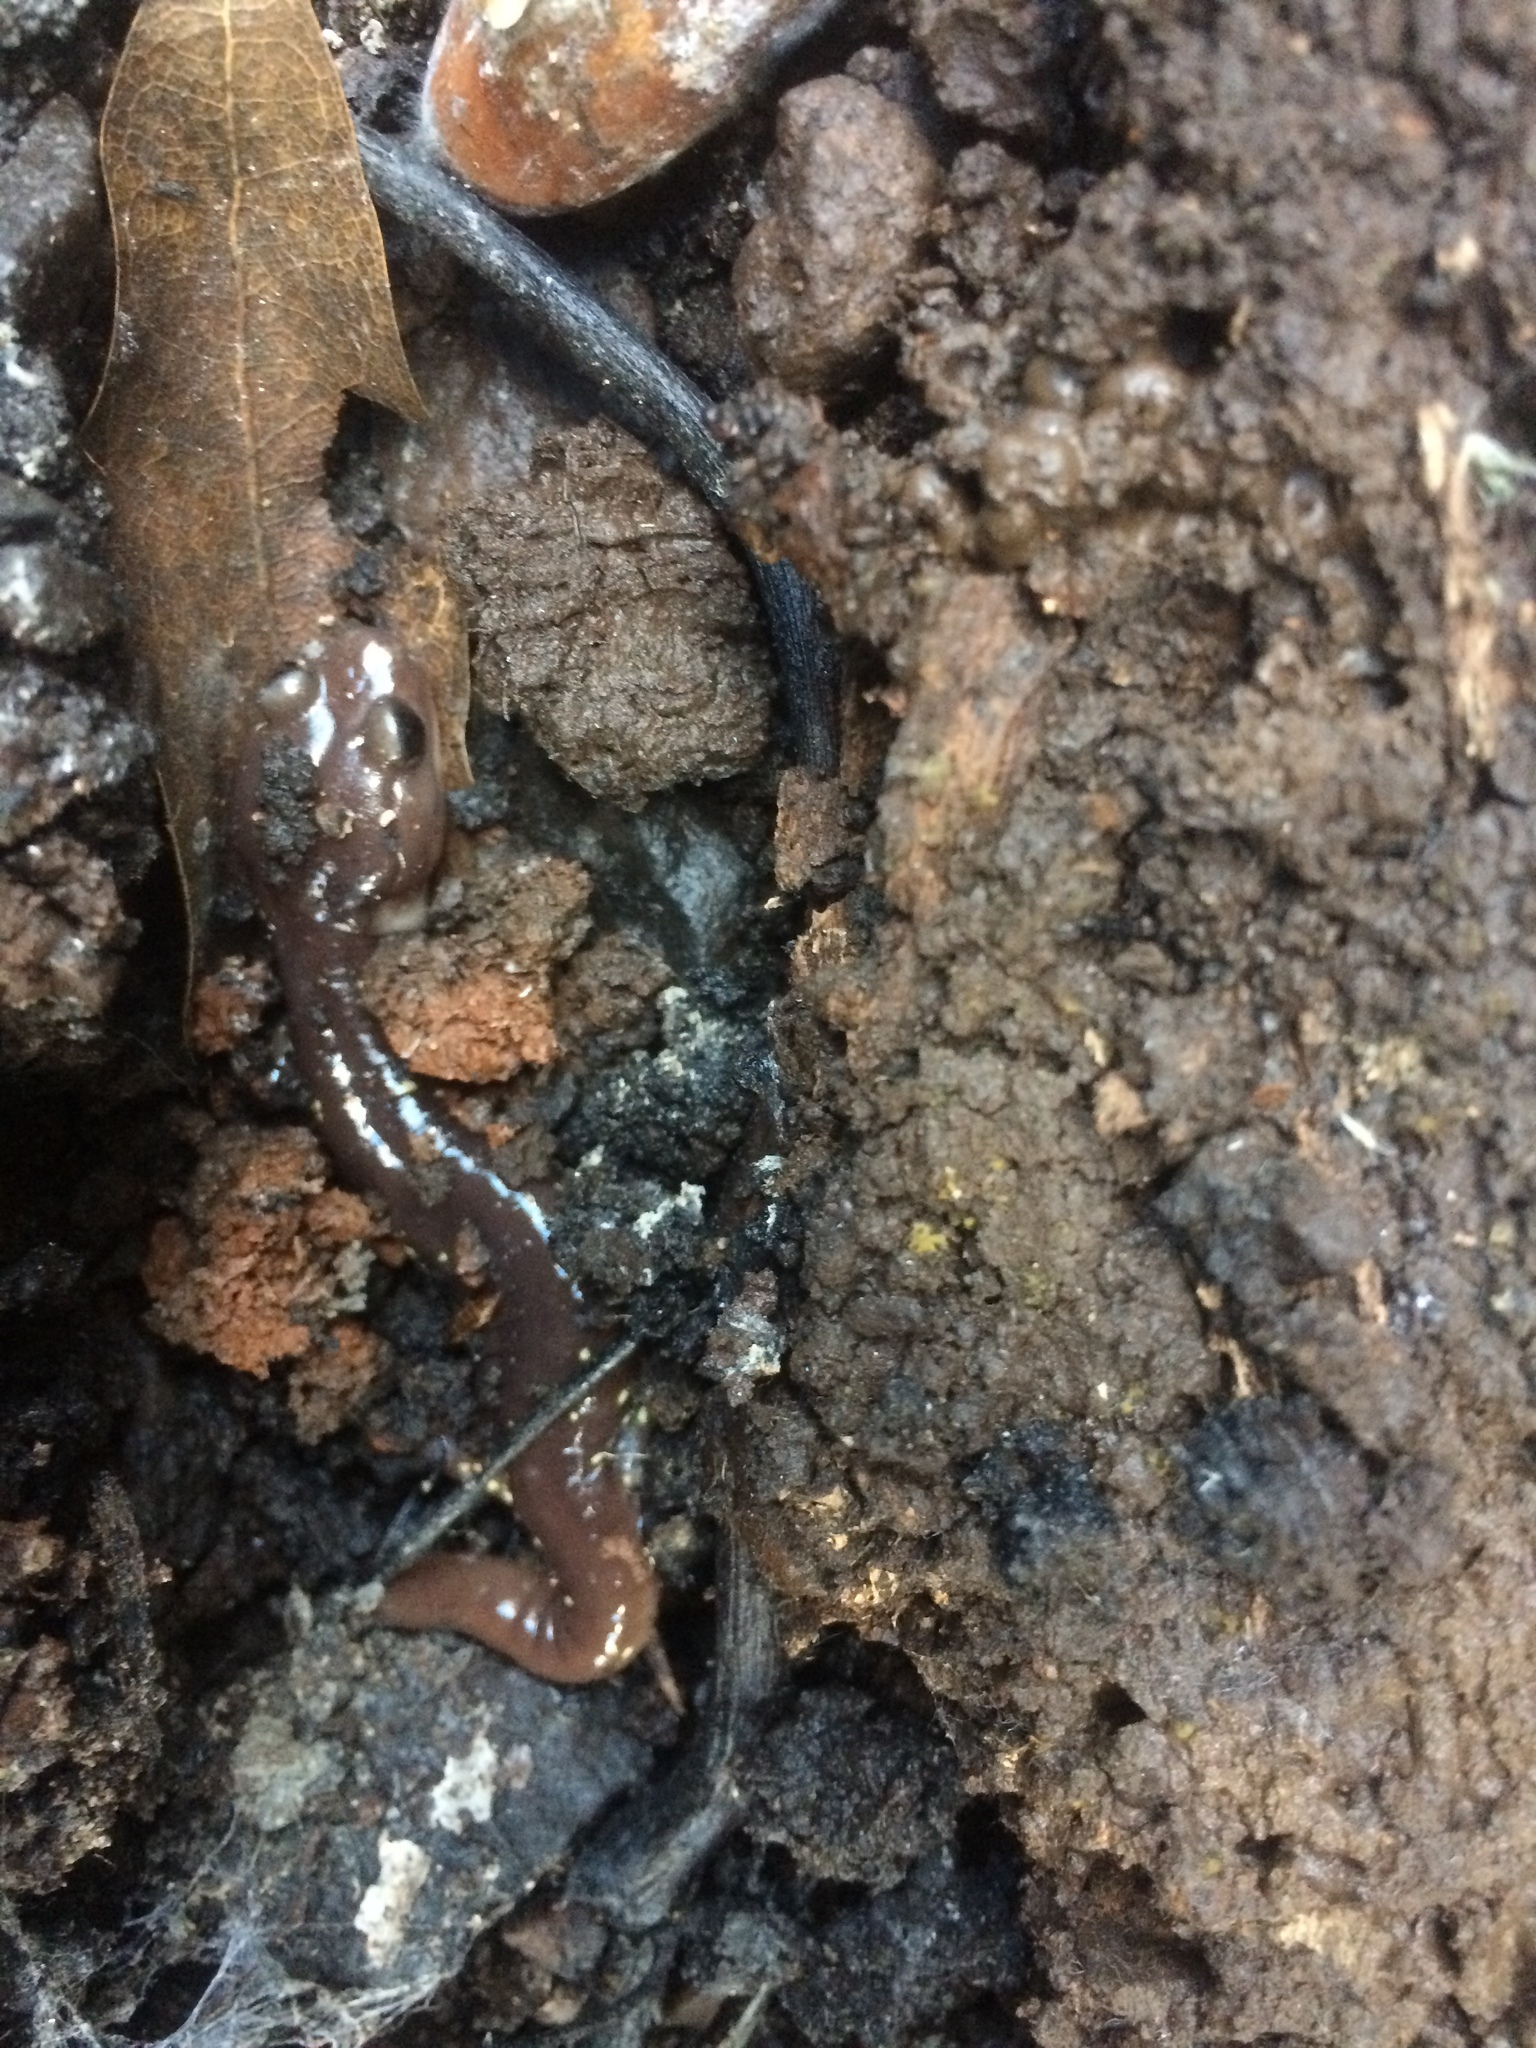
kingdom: Animalia
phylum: Chordata
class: Amphibia
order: Caudata
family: Plethodontidae
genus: Aneides
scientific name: Aneides lugubris
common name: Arboreal salamander
